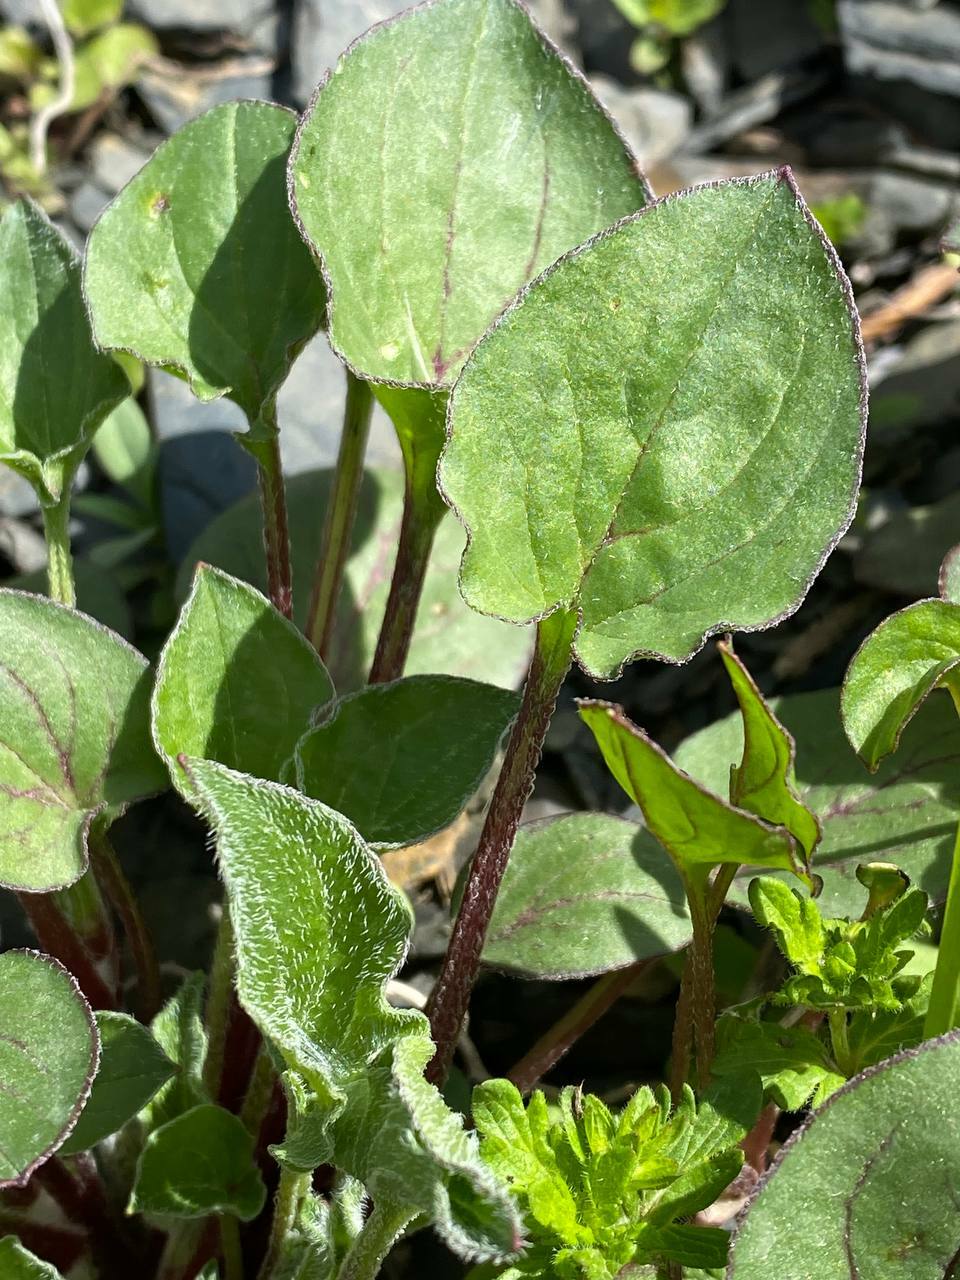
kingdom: Plantae
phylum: Tracheophyta
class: Magnoliopsida
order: Piperales
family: Saururaceae
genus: Houttuynia
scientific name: Houttuynia cordata
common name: Chameleon
